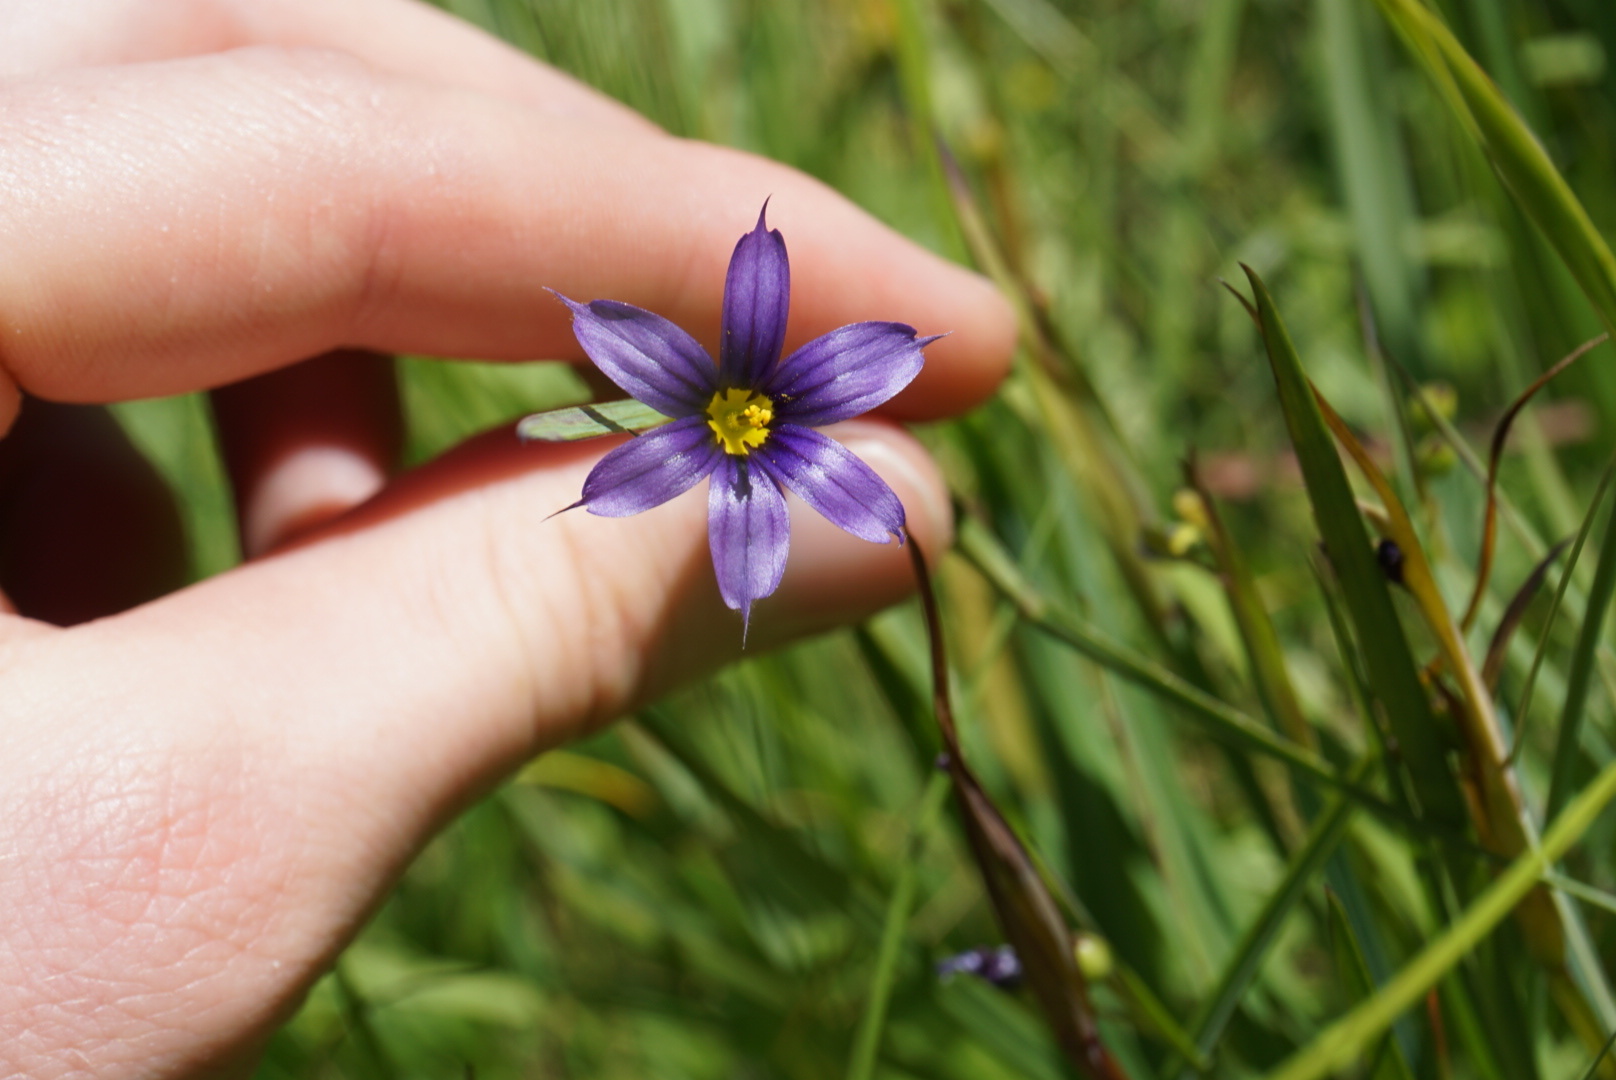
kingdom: Plantae
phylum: Tracheophyta
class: Liliopsida
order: Asparagales
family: Iridaceae
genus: Sisyrinchium
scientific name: Sisyrinchium idahoense
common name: Idaho blue-eyed-grass
